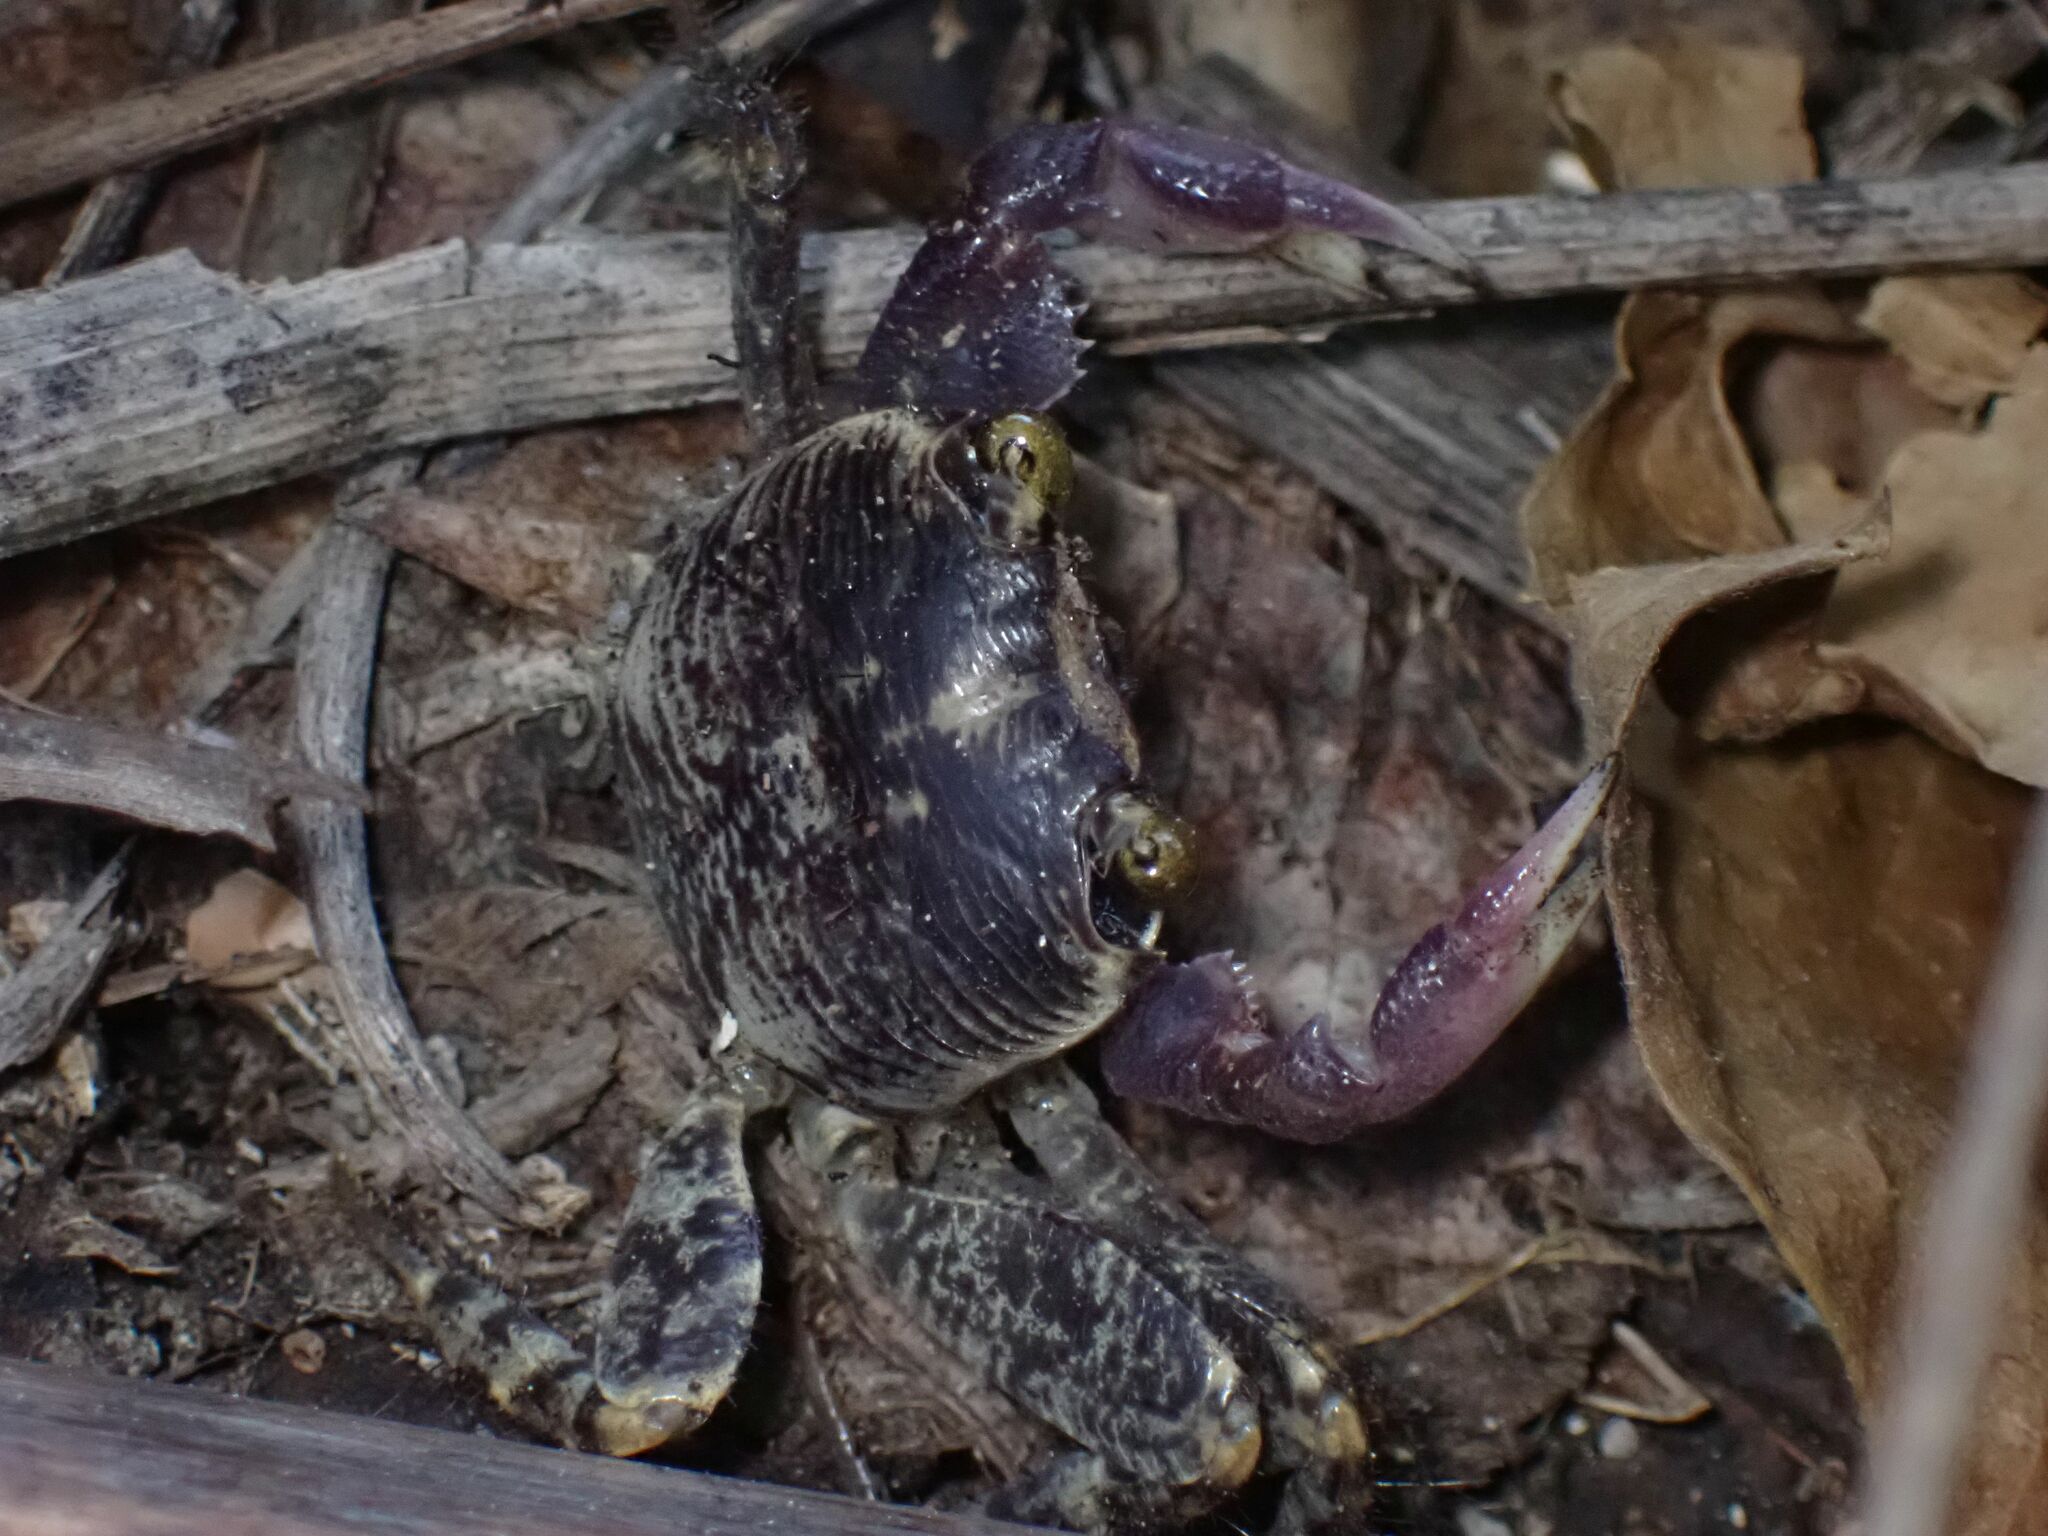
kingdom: Animalia
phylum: Arthropoda
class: Malacostraca
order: Decapoda
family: Grapsidae
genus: Geograpsus
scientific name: Geograpsus grayi
